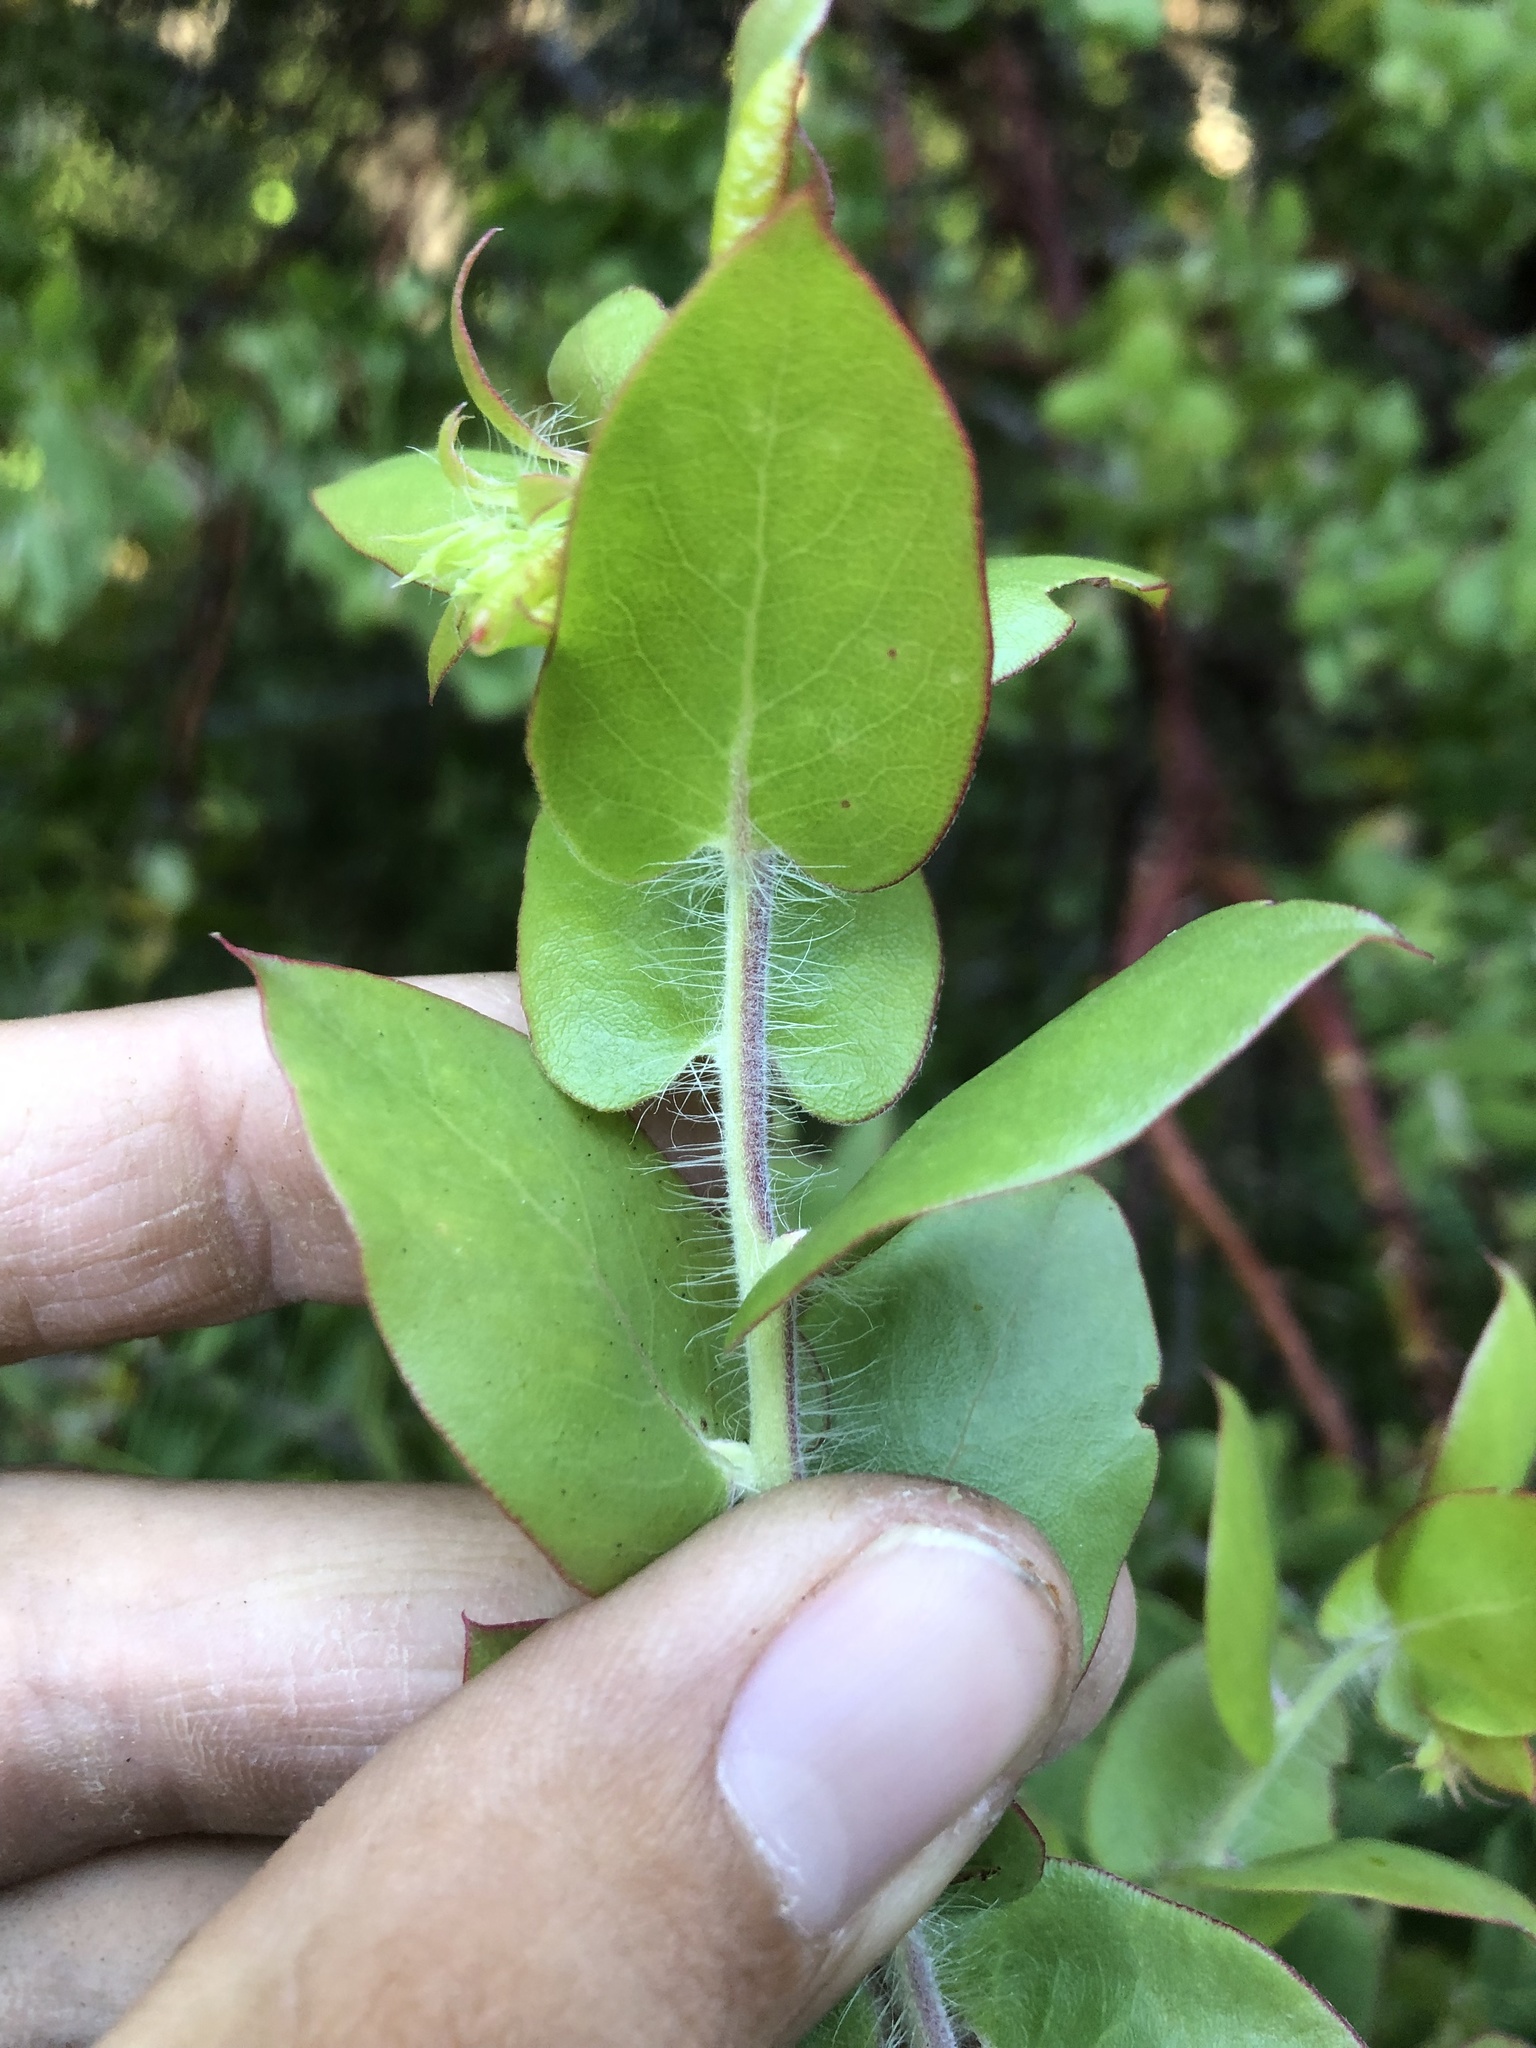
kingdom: Plantae
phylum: Tracheophyta
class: Magnoliopsida
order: Ericales
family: Ericaceae
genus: Arctostaphylos
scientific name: Arctostaphylos pechoensis
